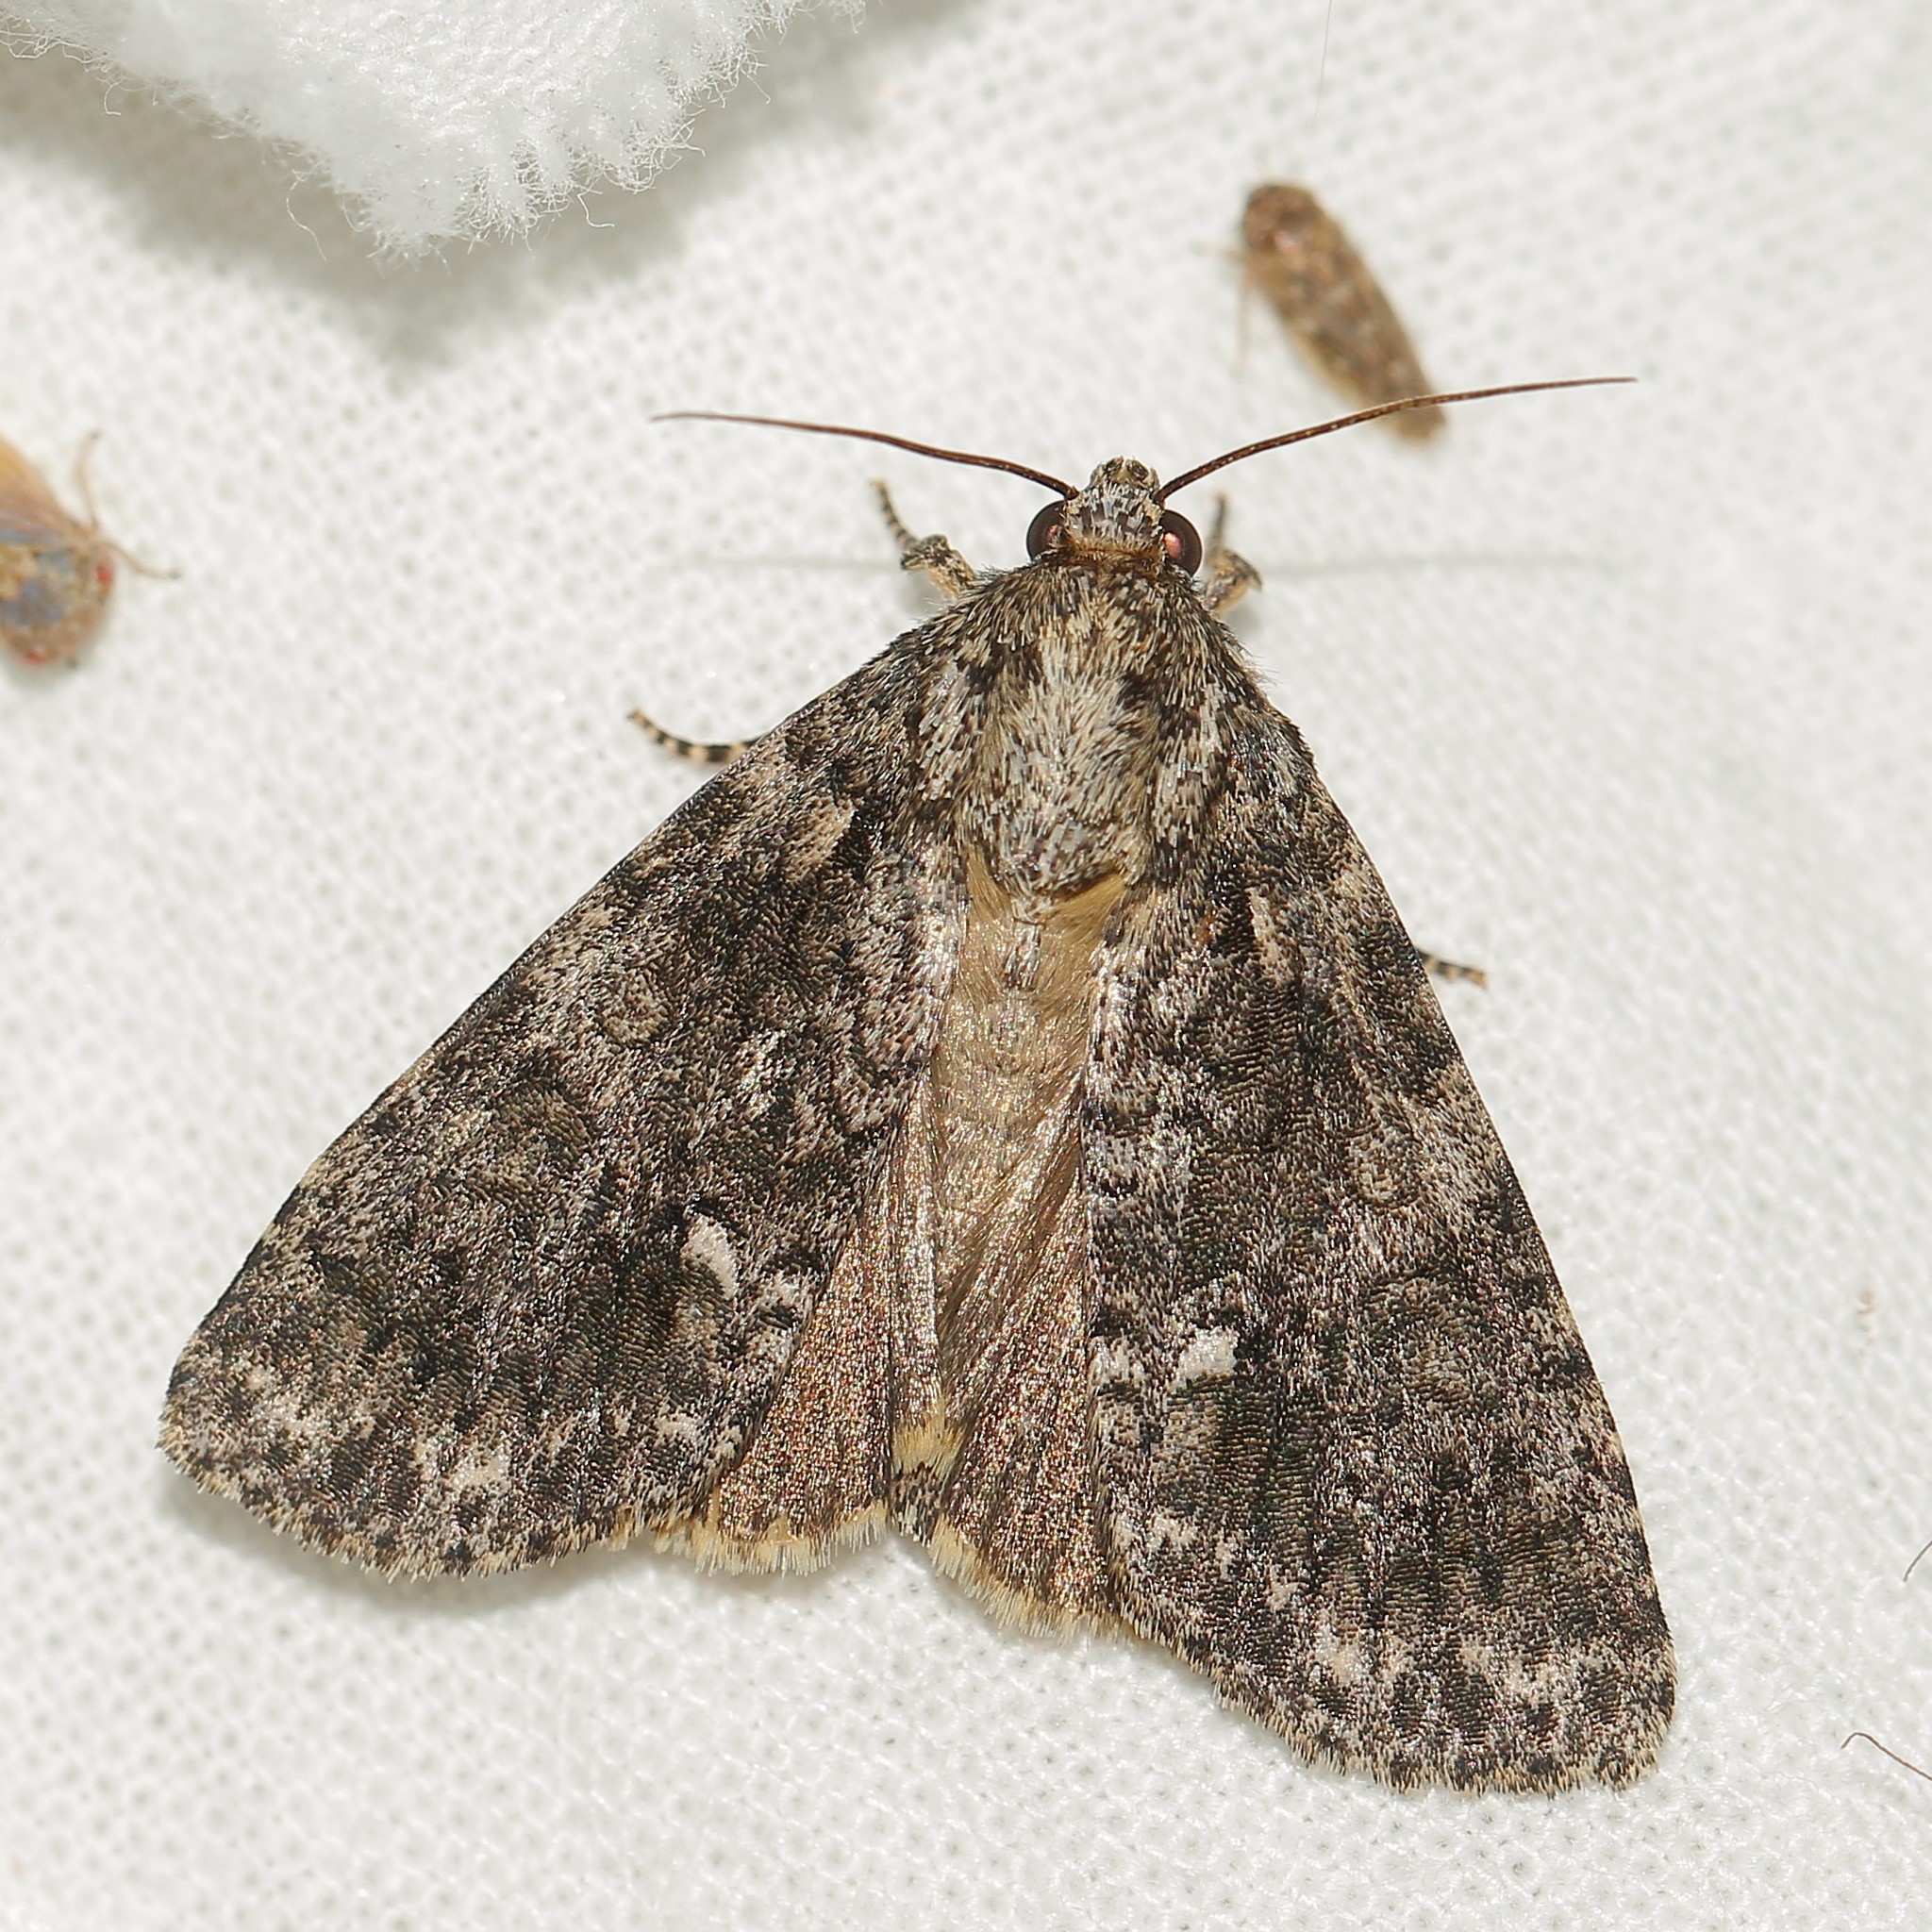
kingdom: Animalia
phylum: Arthropoda
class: Insecta
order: Lepidoptera
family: Noctuidae
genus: Acronicta
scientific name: Acronicta rumicis
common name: Knot grass
